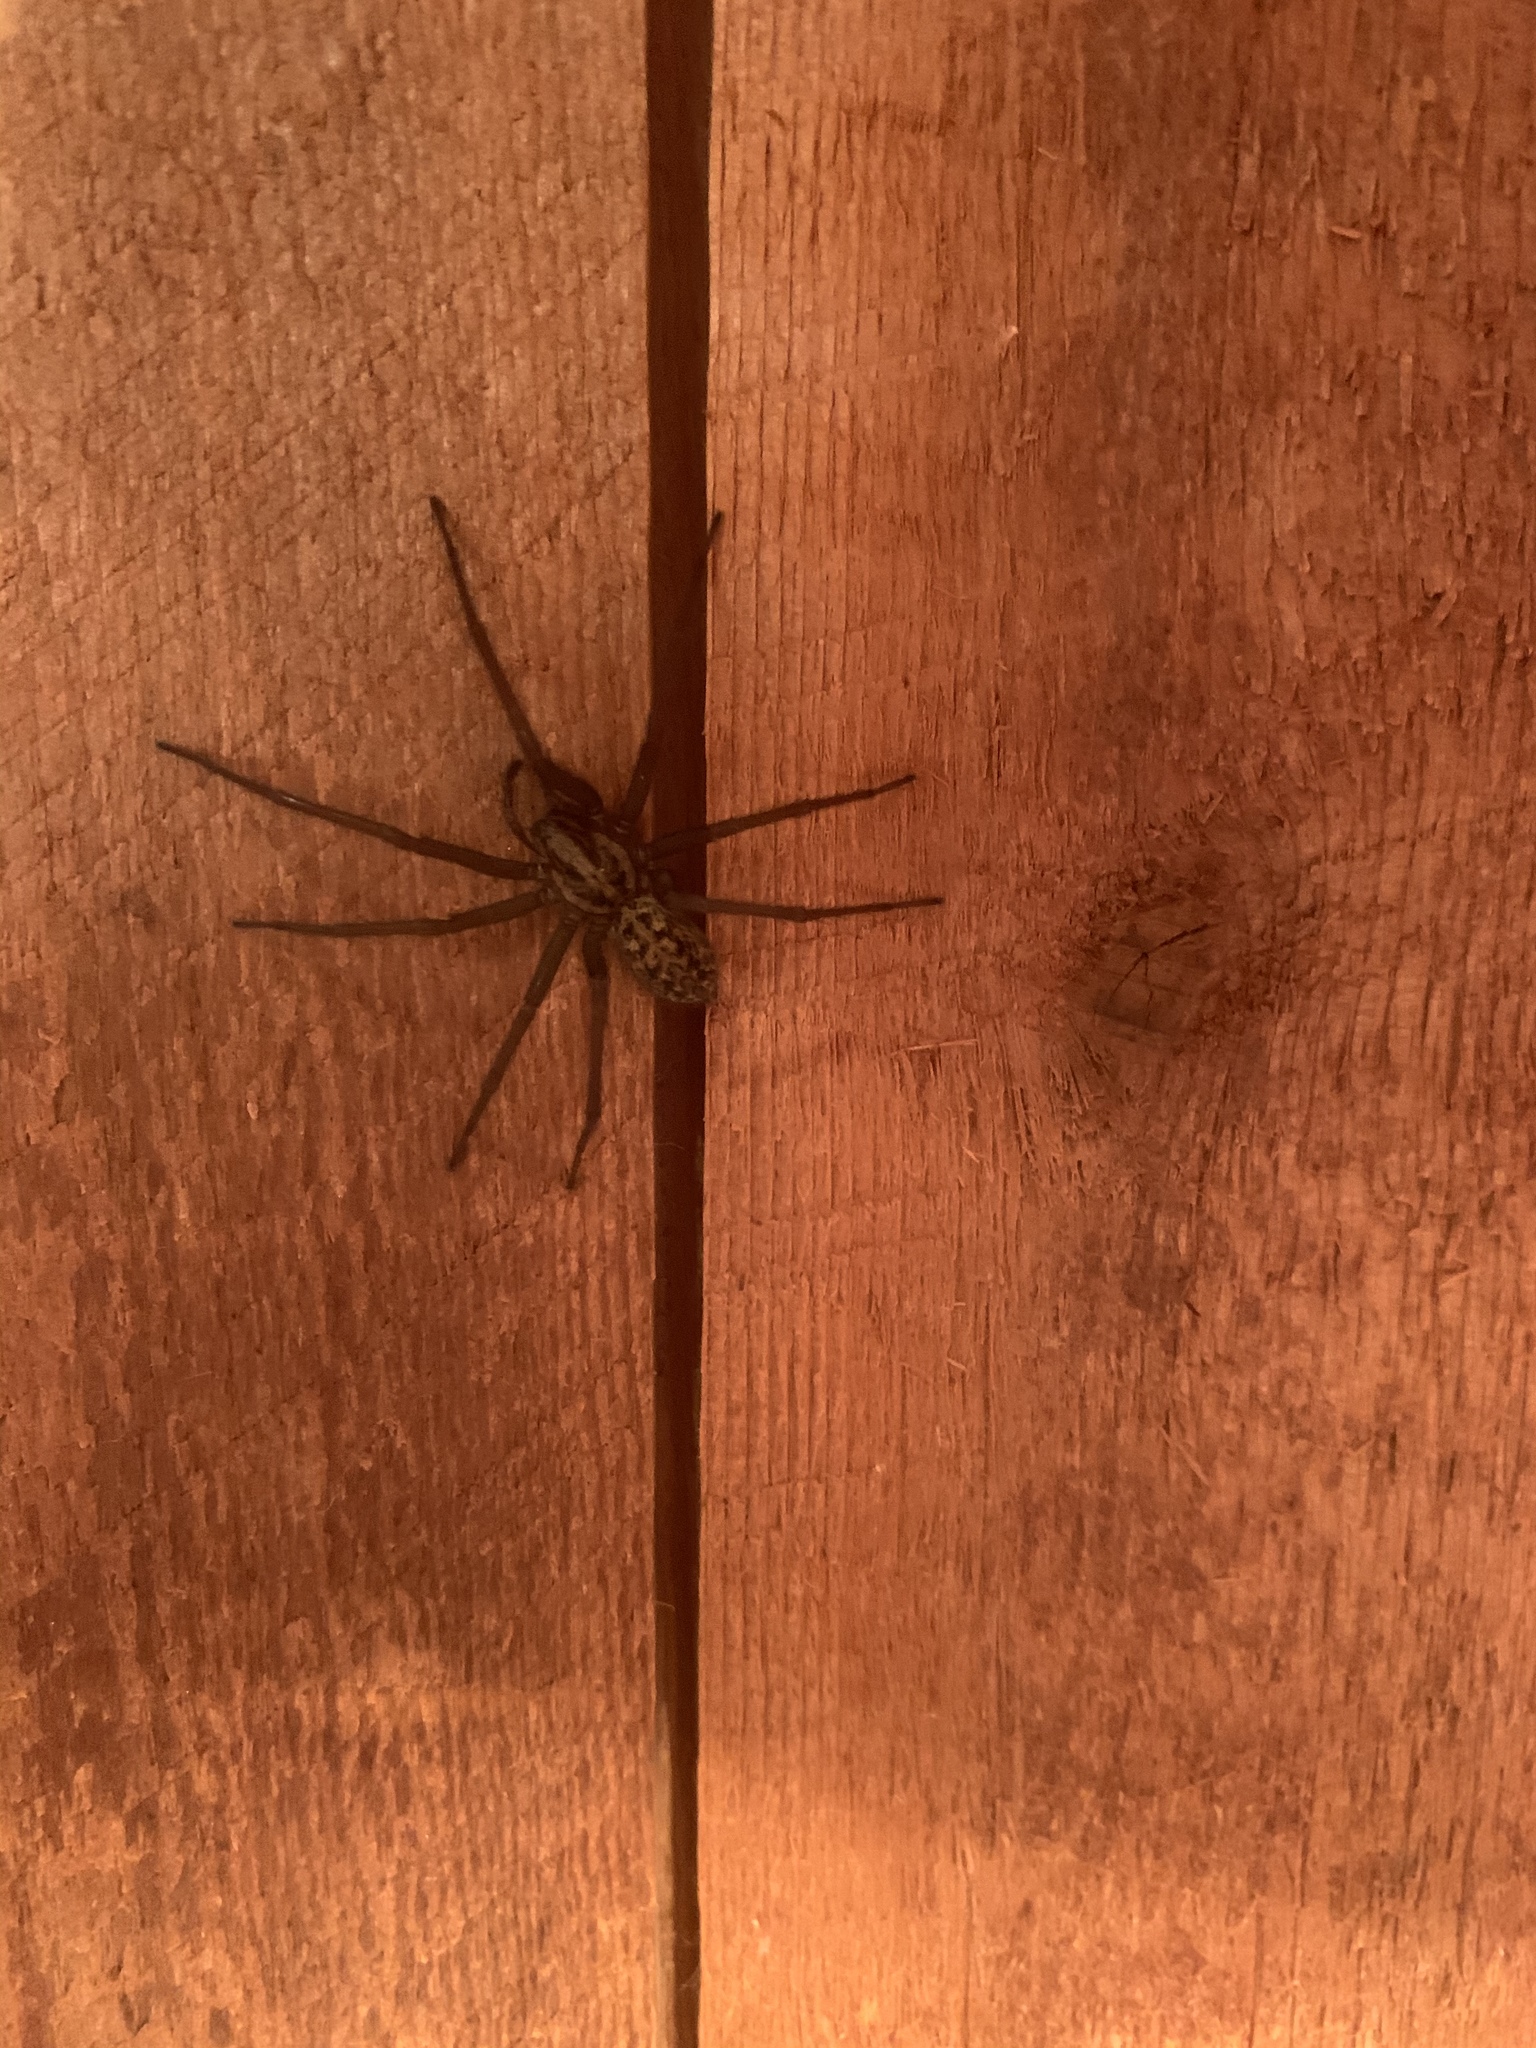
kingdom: Animalia
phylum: Arthropoda
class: Arachnida
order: Araneae
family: Agelenidae
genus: Eratigena
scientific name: Eratigena duellica
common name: Giant house spider
